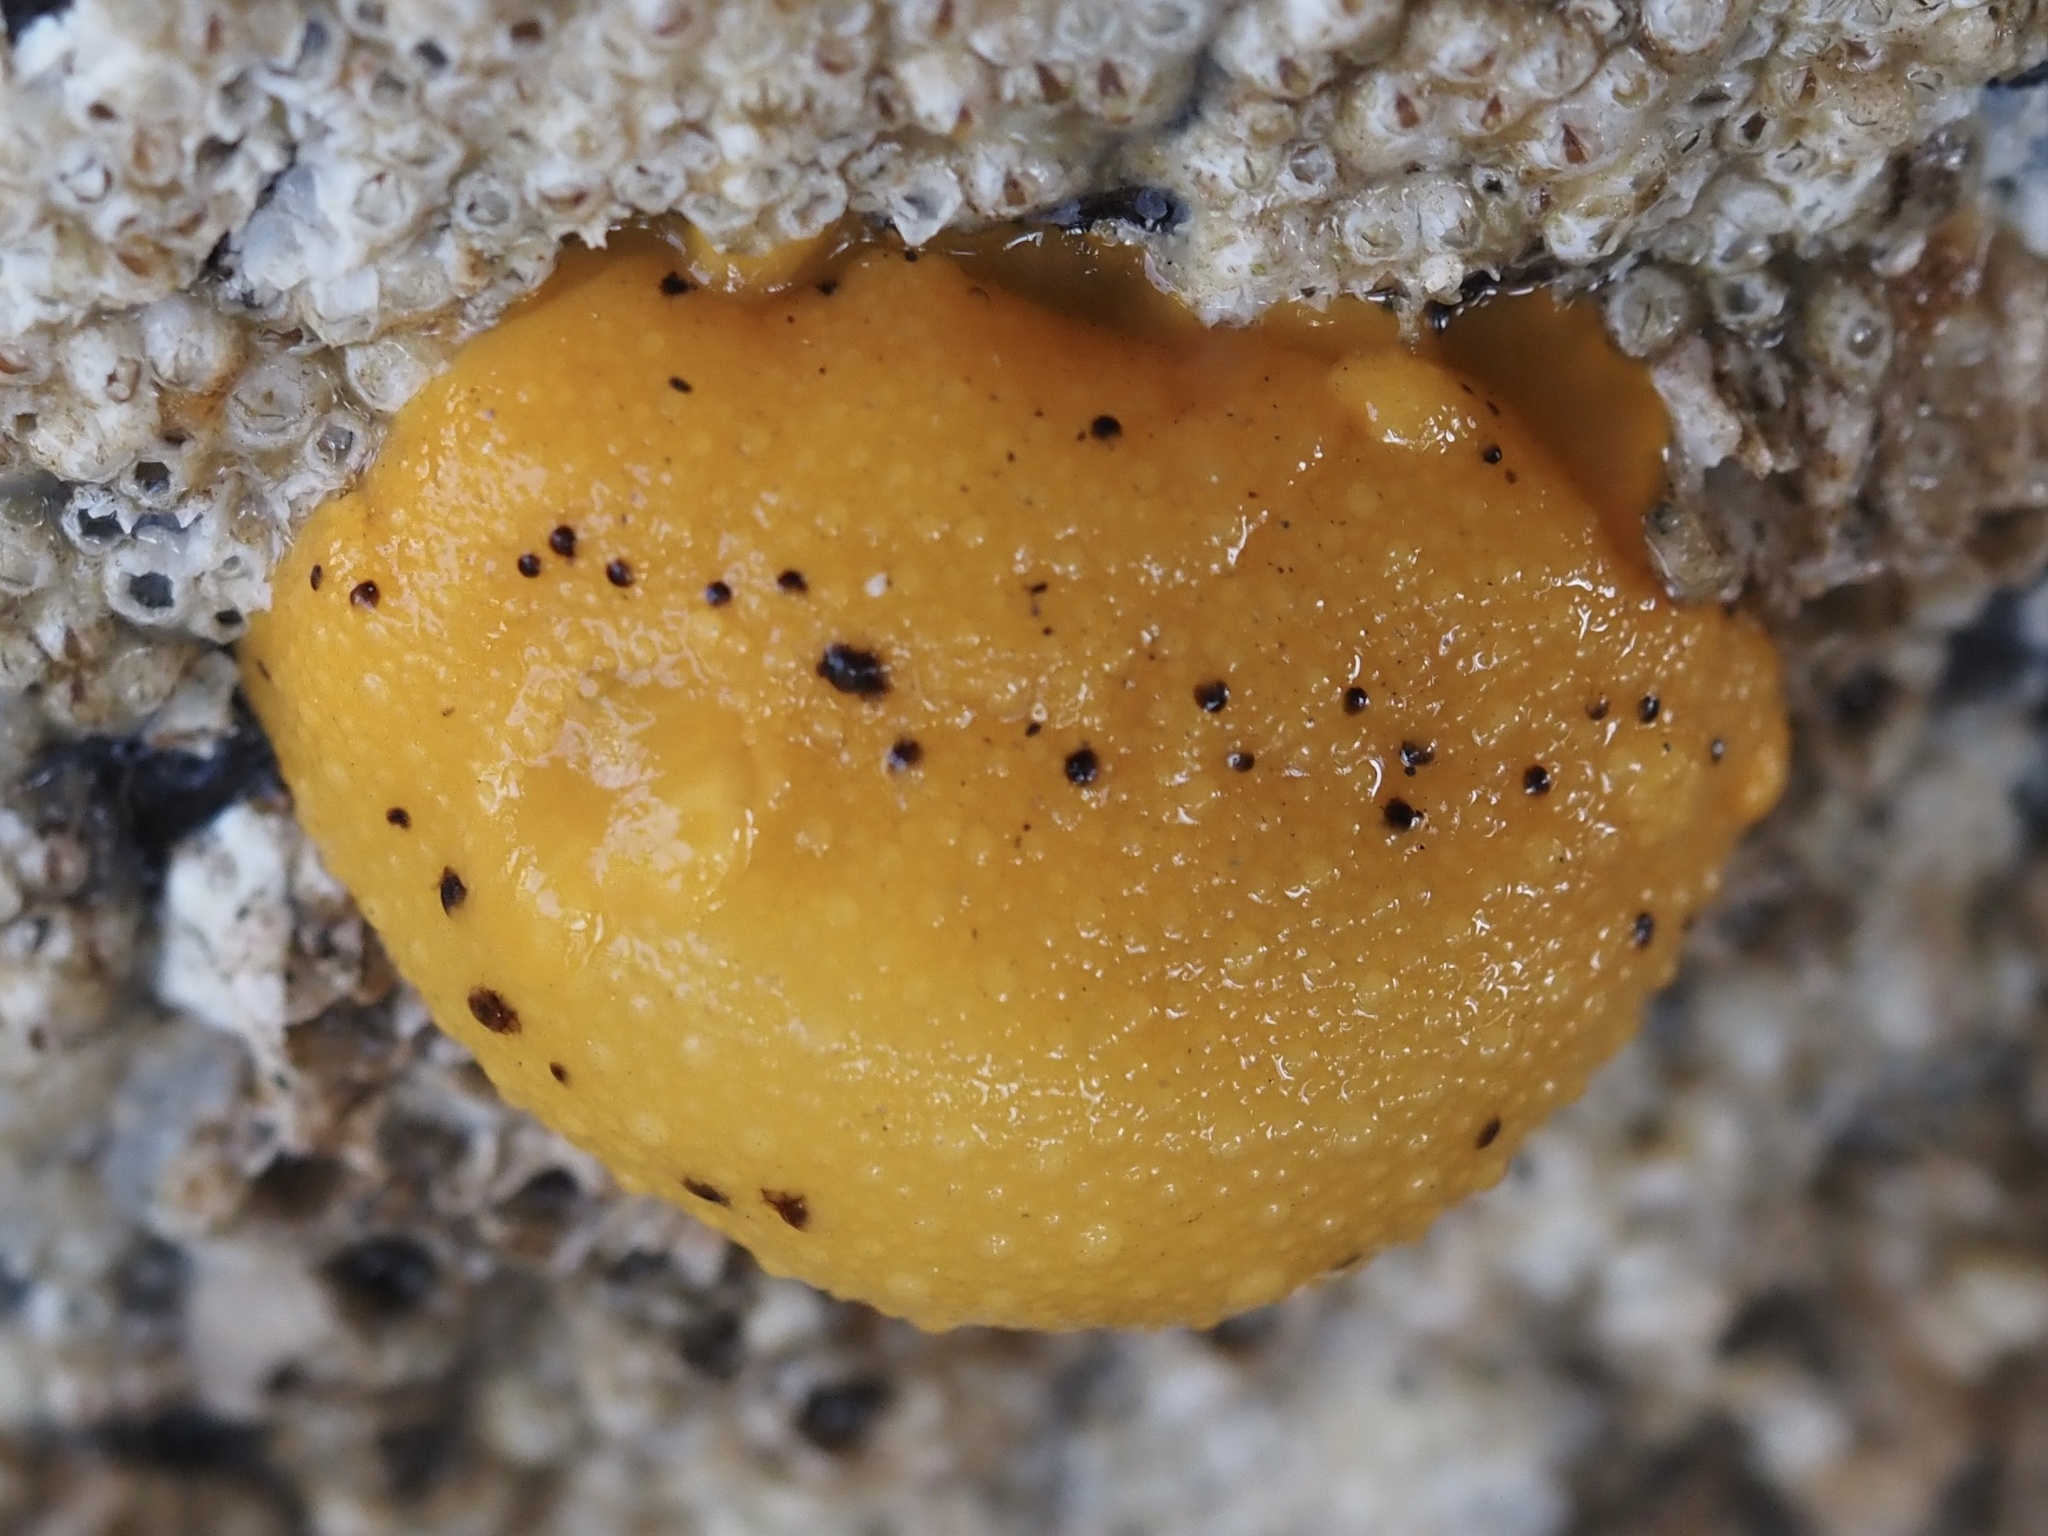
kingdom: Animalia
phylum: Mollusca
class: Gastropoda
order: Nudibranchia
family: Dorididae
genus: Doris
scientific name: Doris montereyensis
